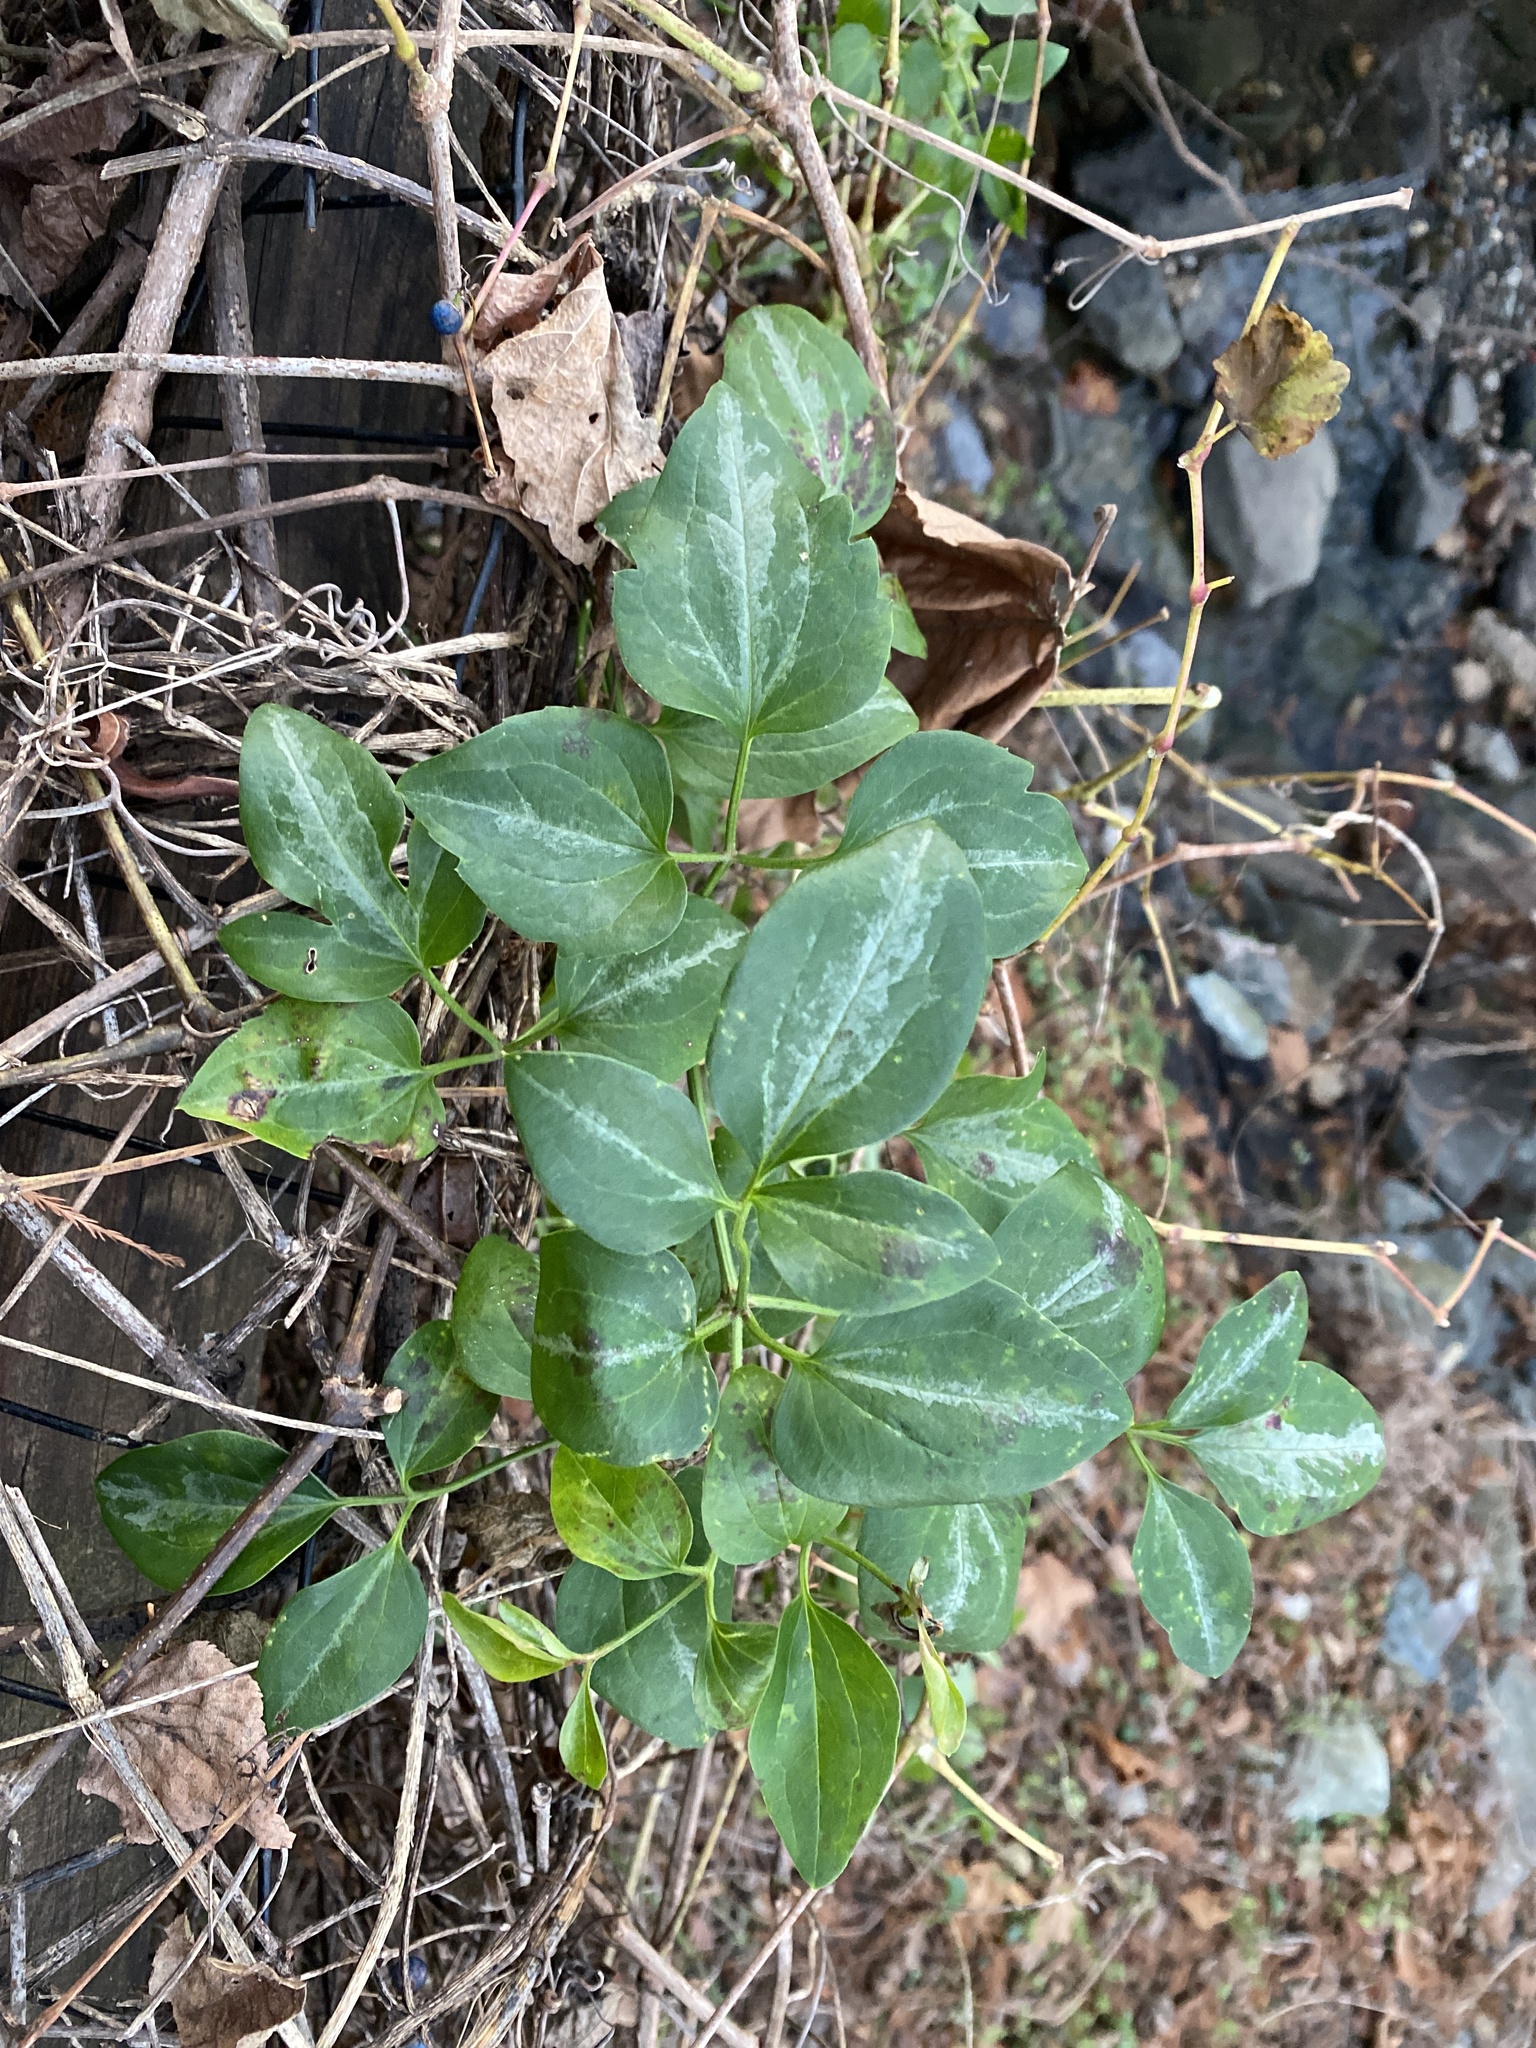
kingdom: Plantae
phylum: Tracheophyta
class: Magnoliopsida
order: Ranunculales
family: Ranunculaceae
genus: Clematis
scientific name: Clematis terniflora
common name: Sweet autumn clematis
